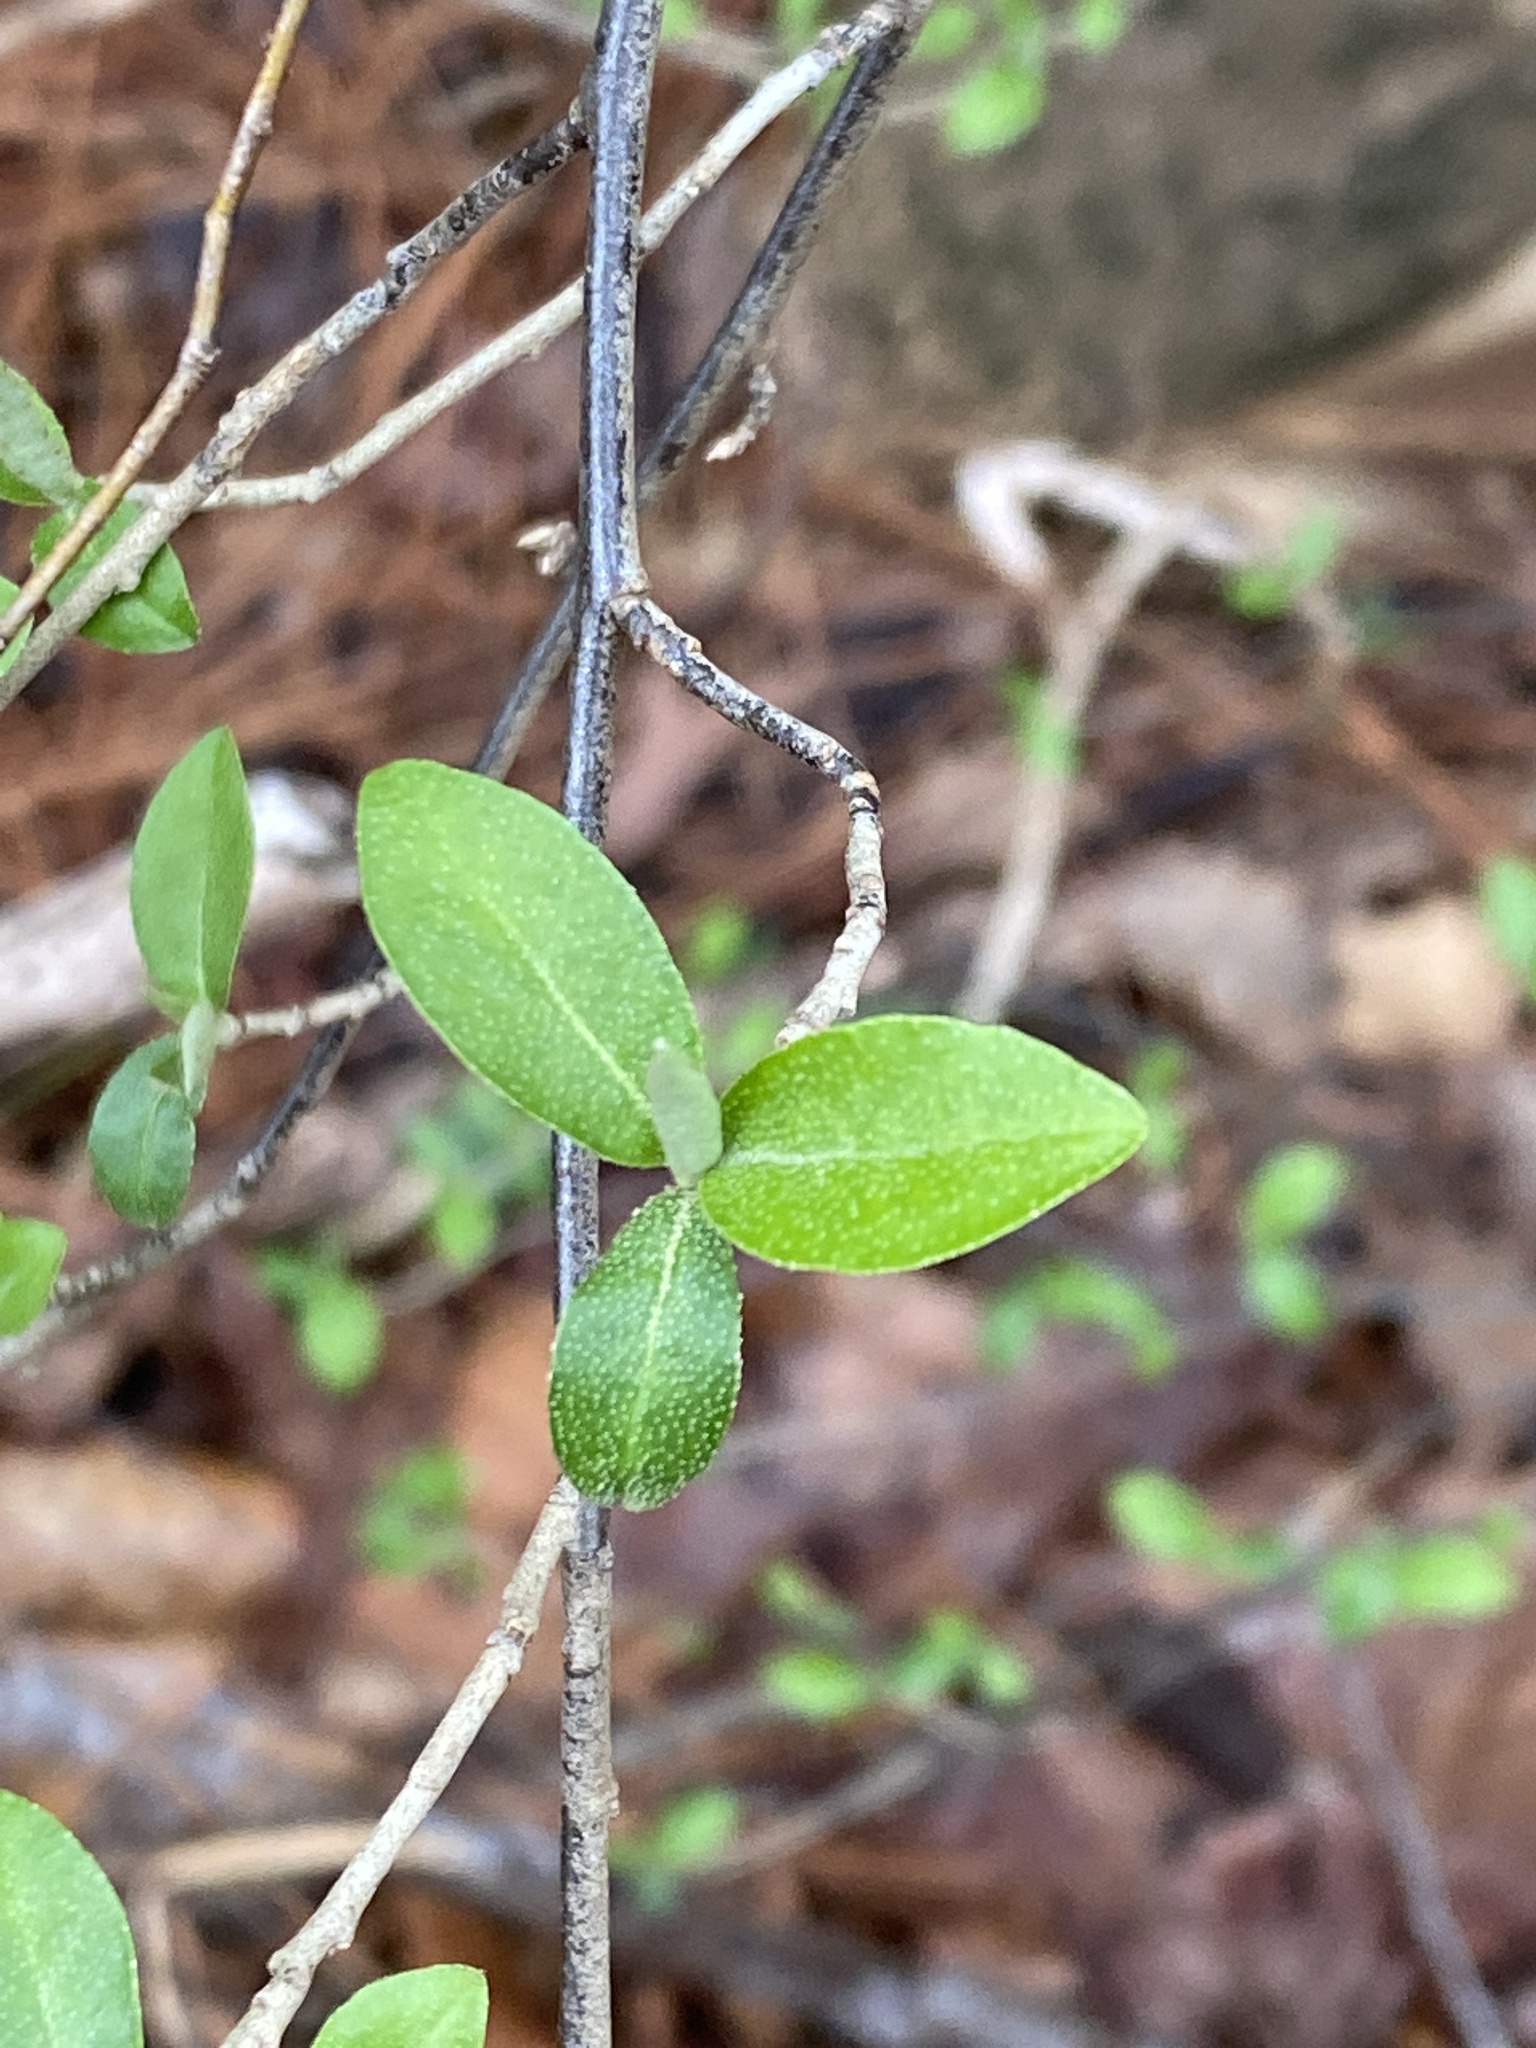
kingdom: Plantae
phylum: Tracheophyta
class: Magnoliopsida
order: Rosales
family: Elaeagnaceae
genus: Elaeagnus
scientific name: Elaeagnus umbellata
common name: Autumn olive
